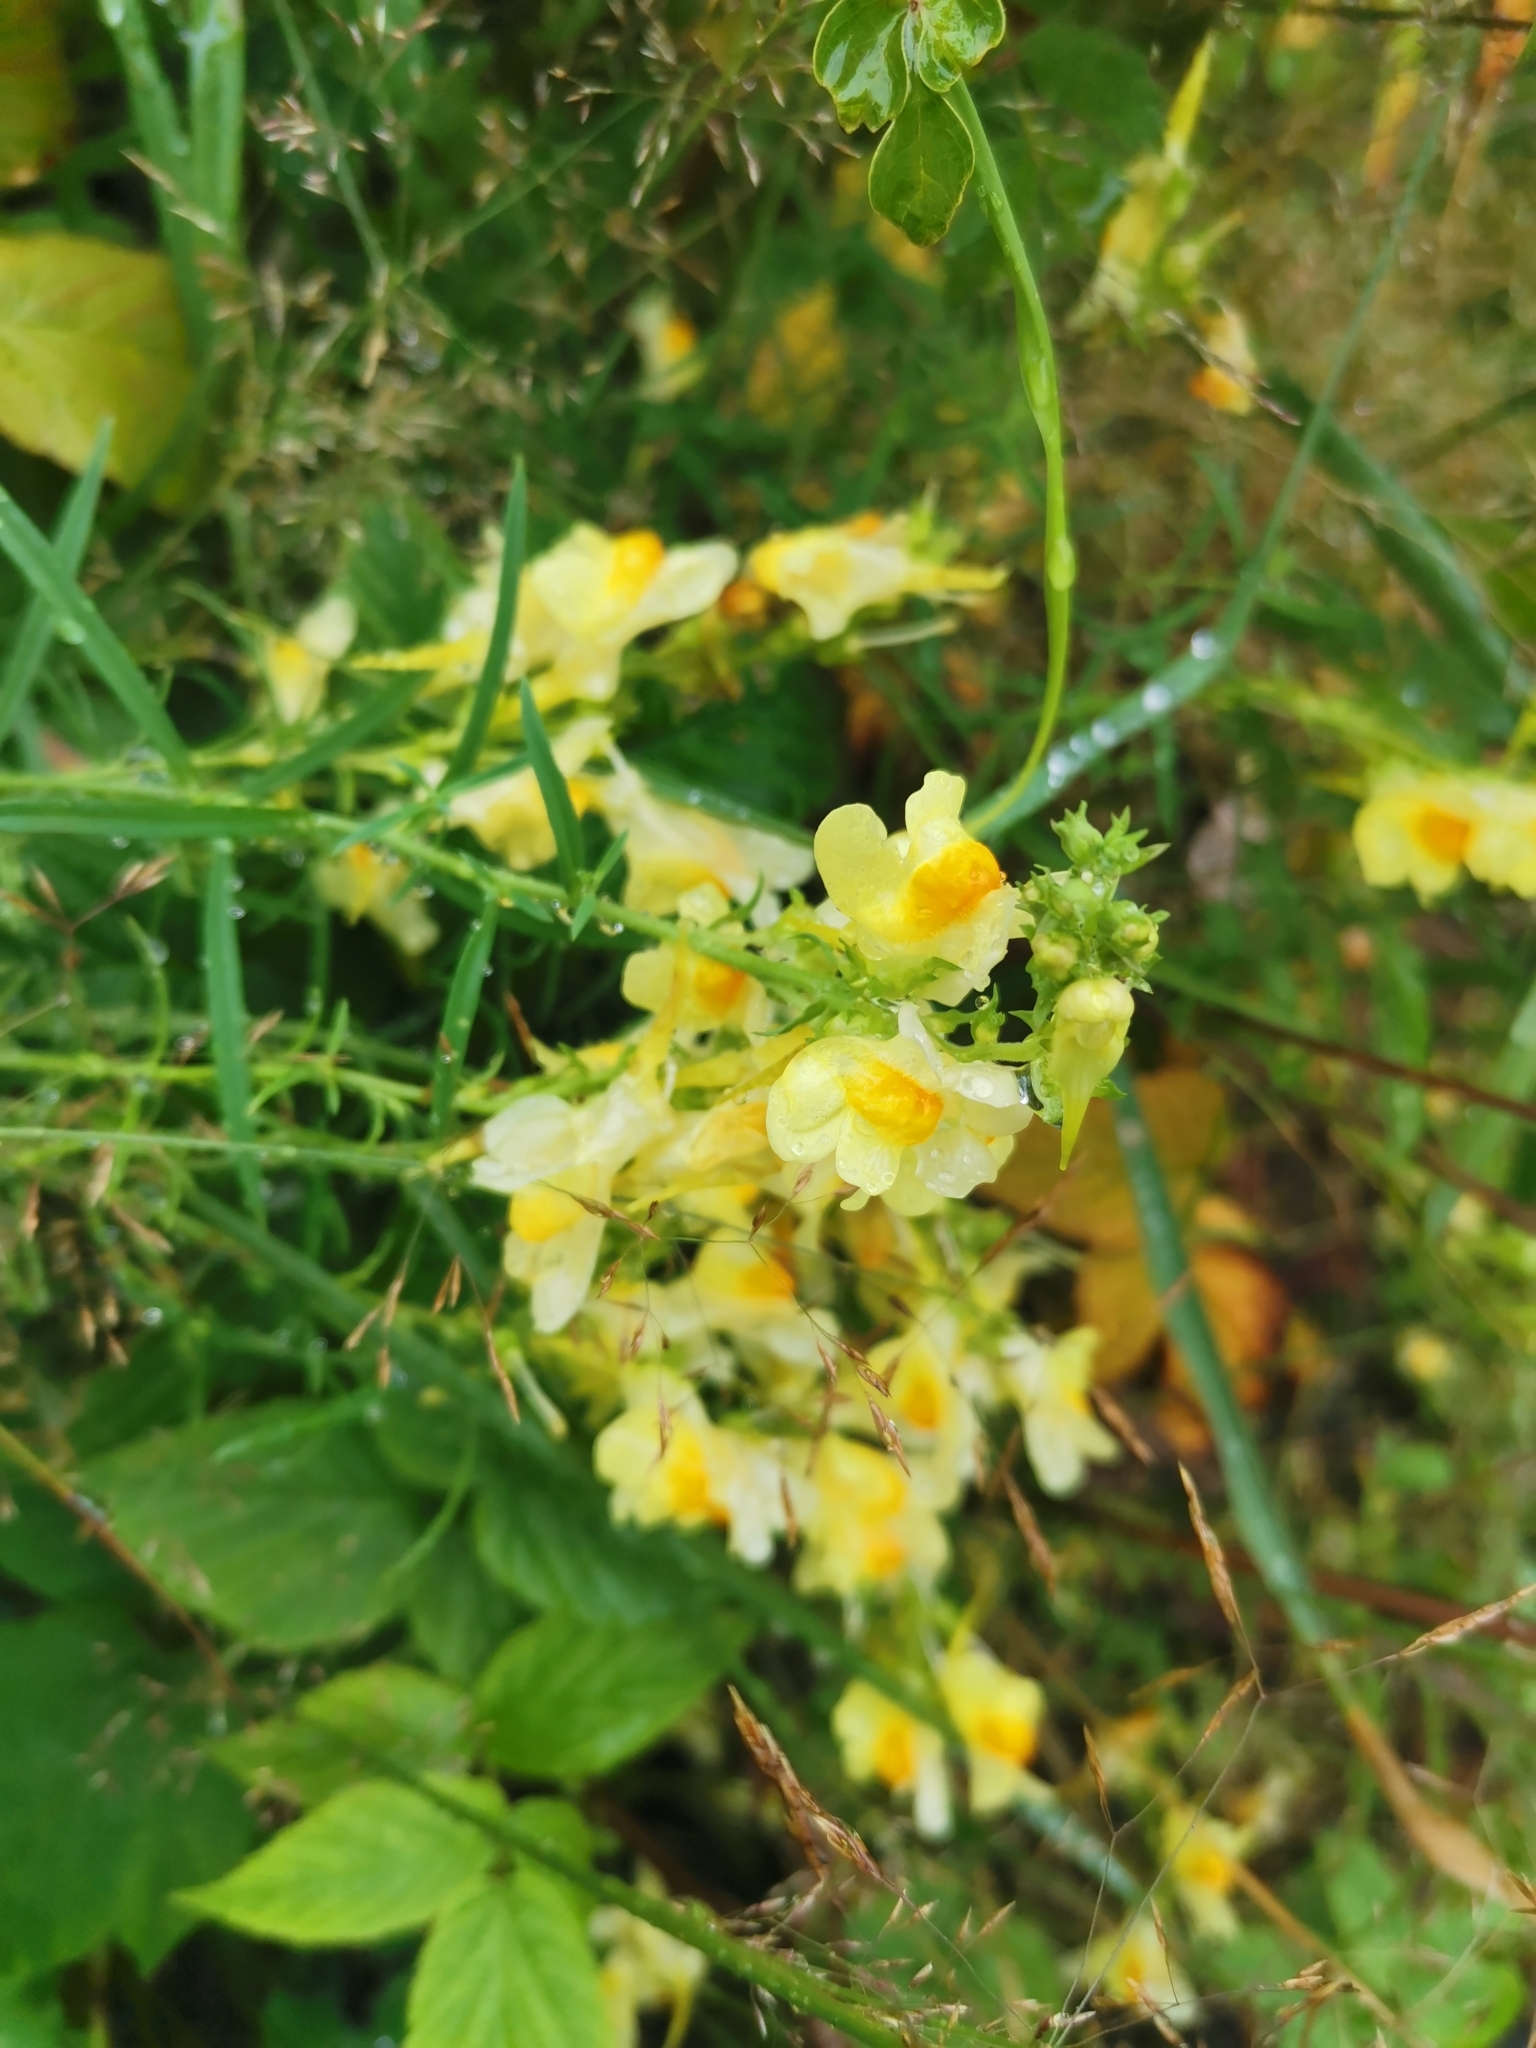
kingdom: Plantae
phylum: Tracheophyta
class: Magnoliopsida
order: Lamiales
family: Plantaginaceae
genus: Linaria
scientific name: Linaria vulgaris
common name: Butter and eggs
